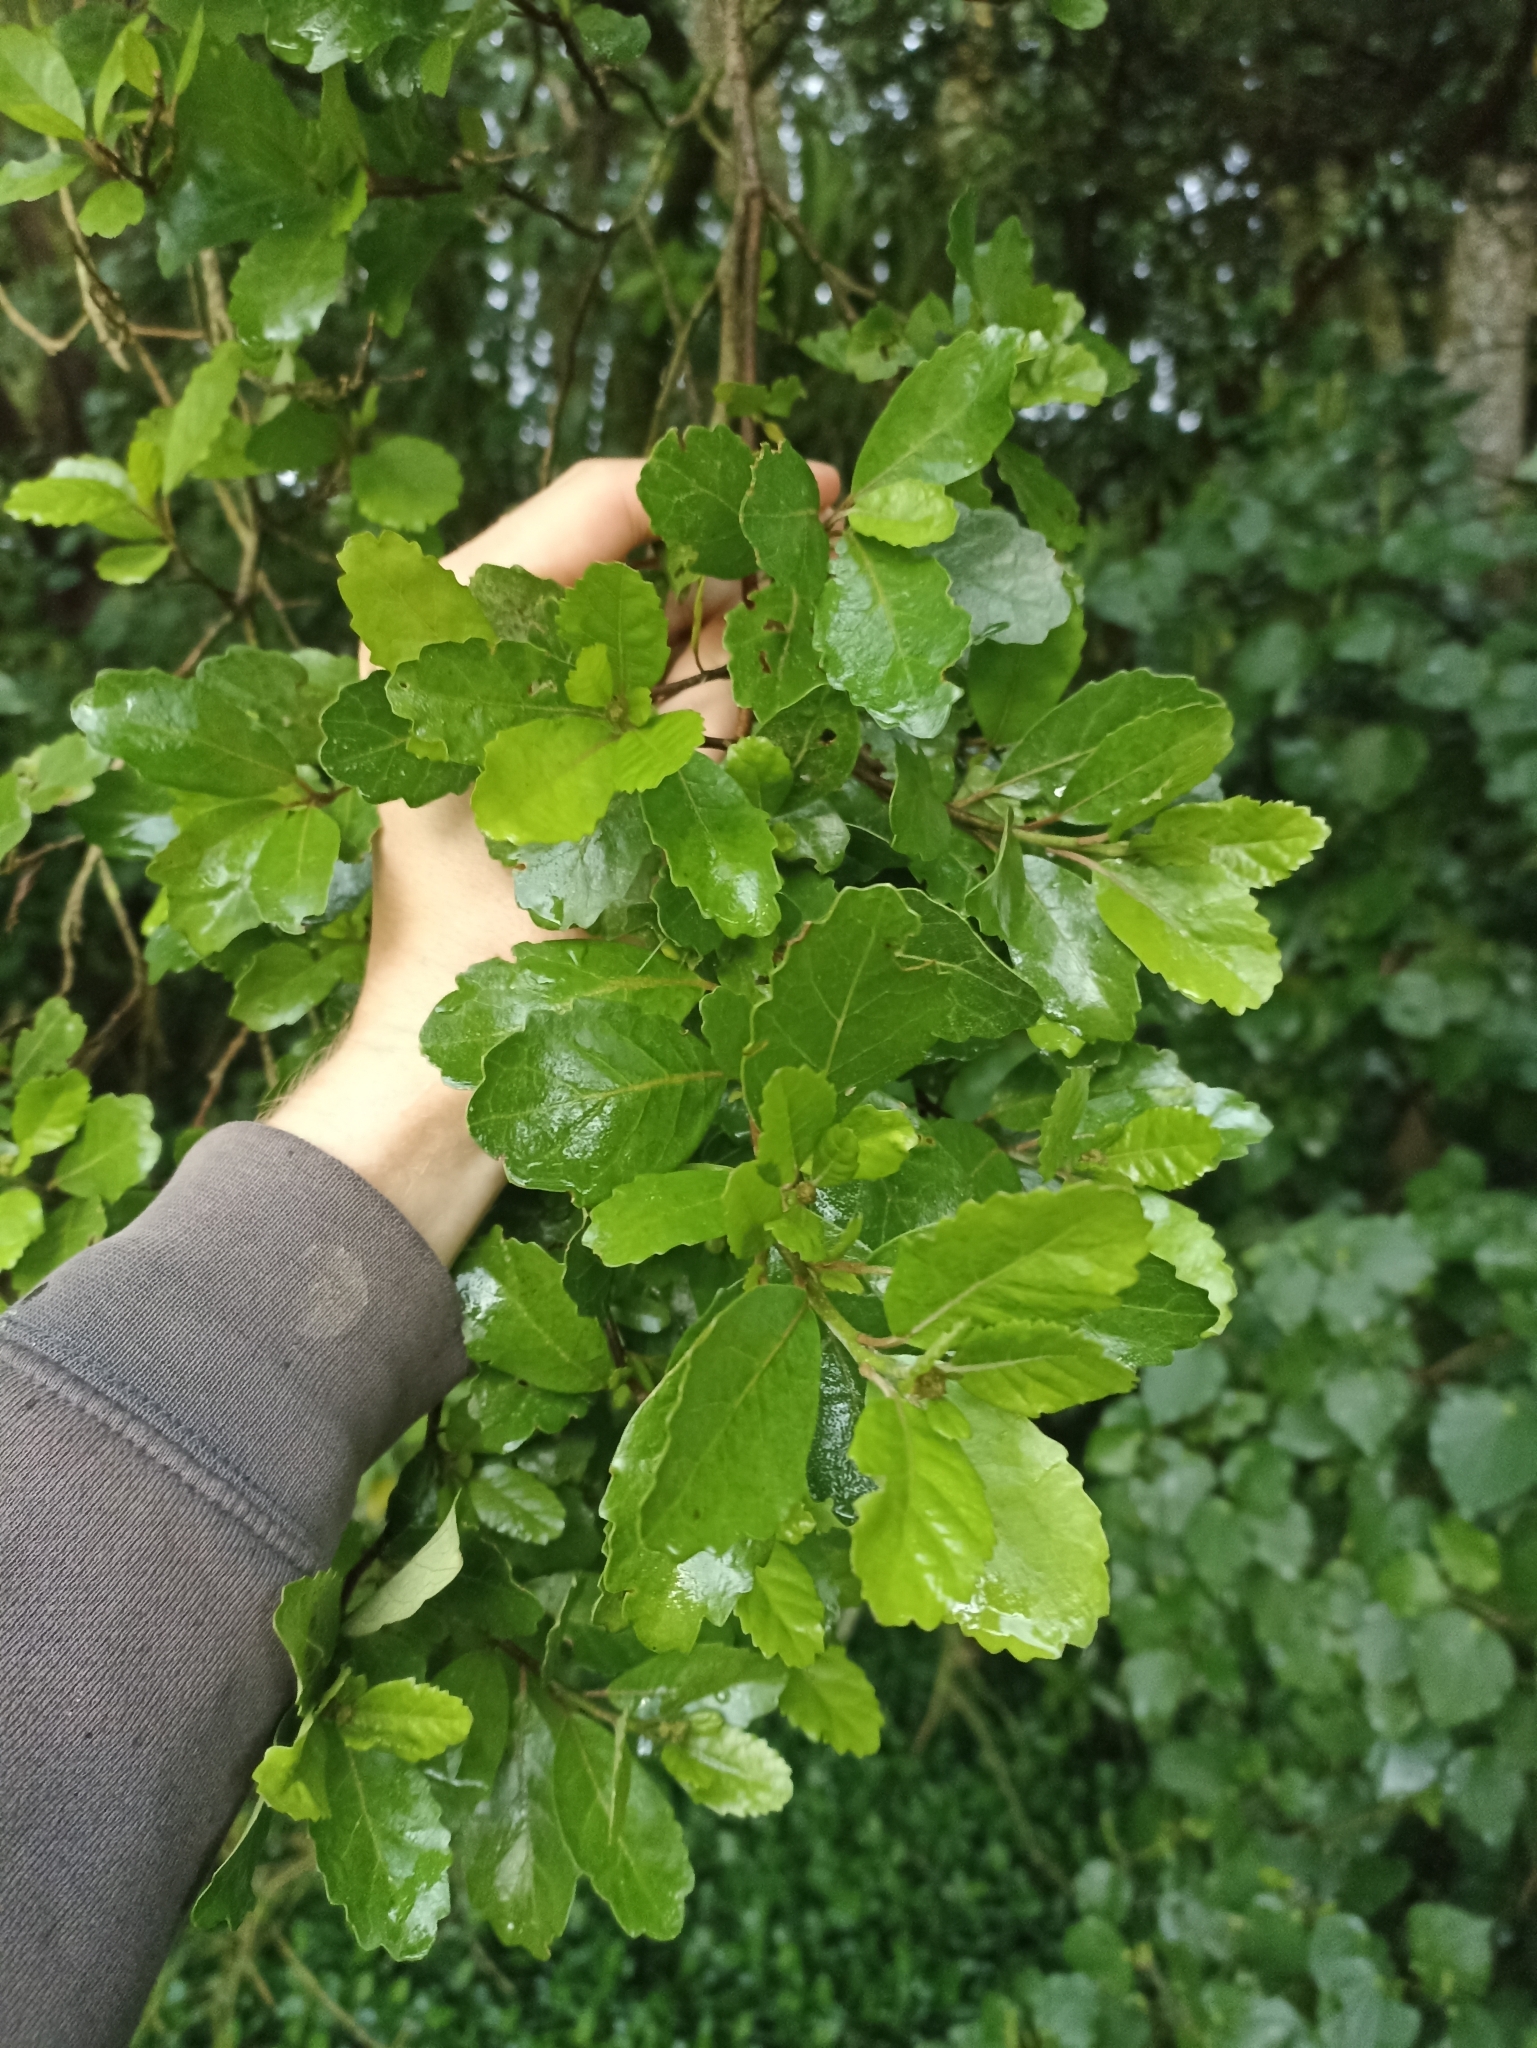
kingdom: Plantae
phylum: Tracheophyta
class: Magnoliopsida
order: Apiales
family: Pennantiaceae
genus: Pennantia
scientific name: Pennantia corymbosa
